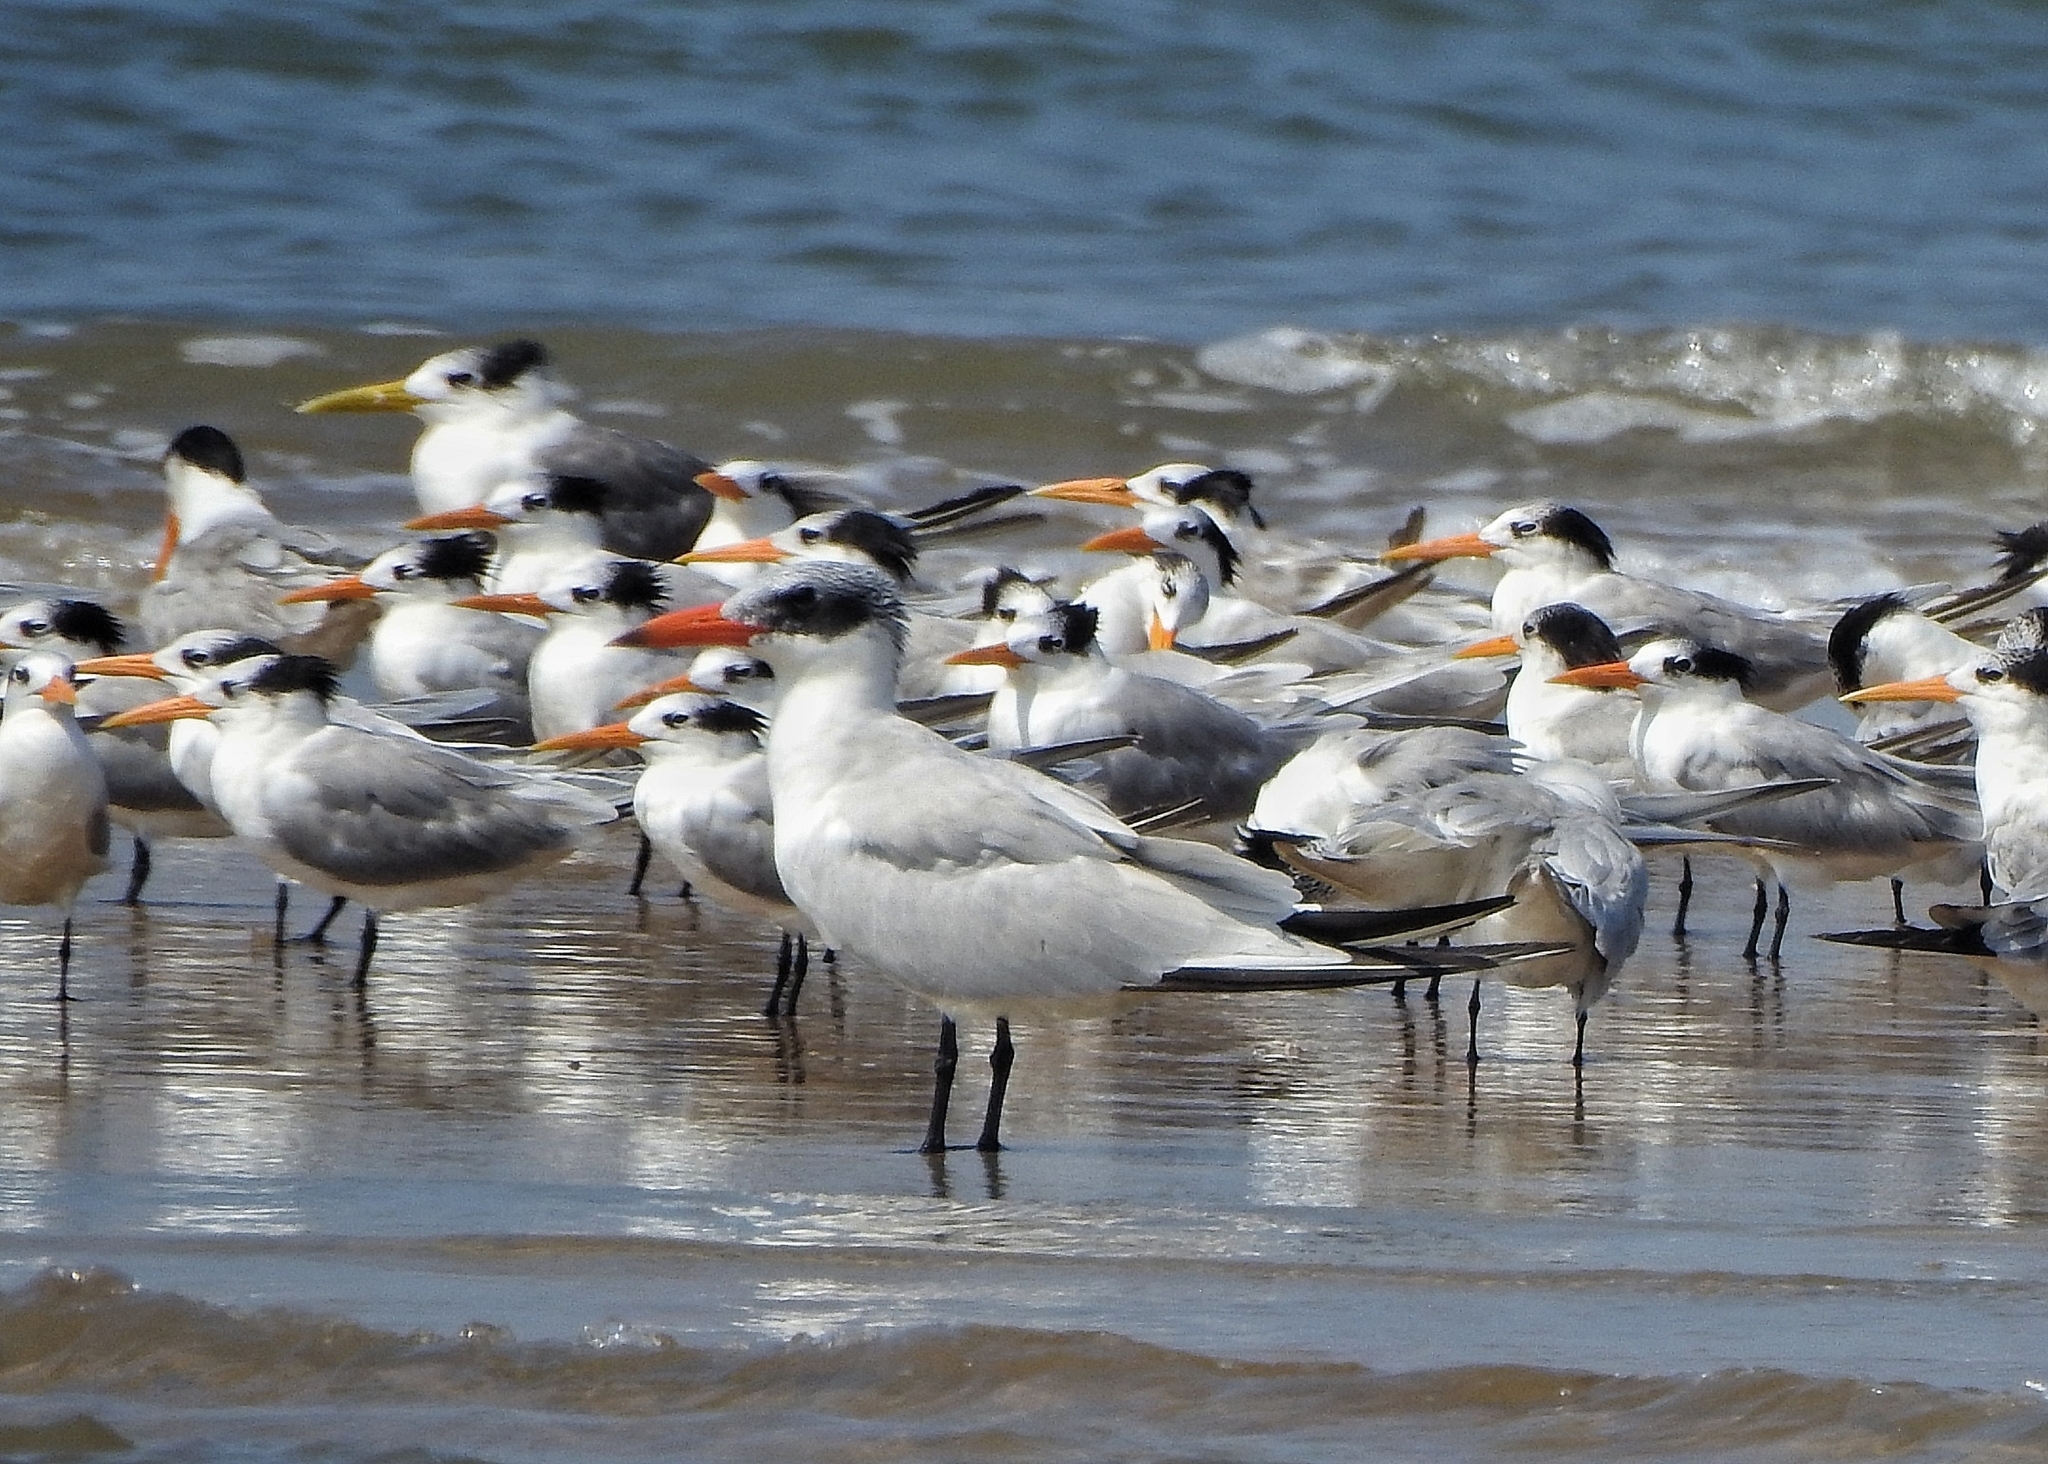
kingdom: Animalia
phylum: Chordata
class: Aves
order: Charadriiformes
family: Laridae
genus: Hydroprogne
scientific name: Hydroprogne caspia
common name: Caspian tern
